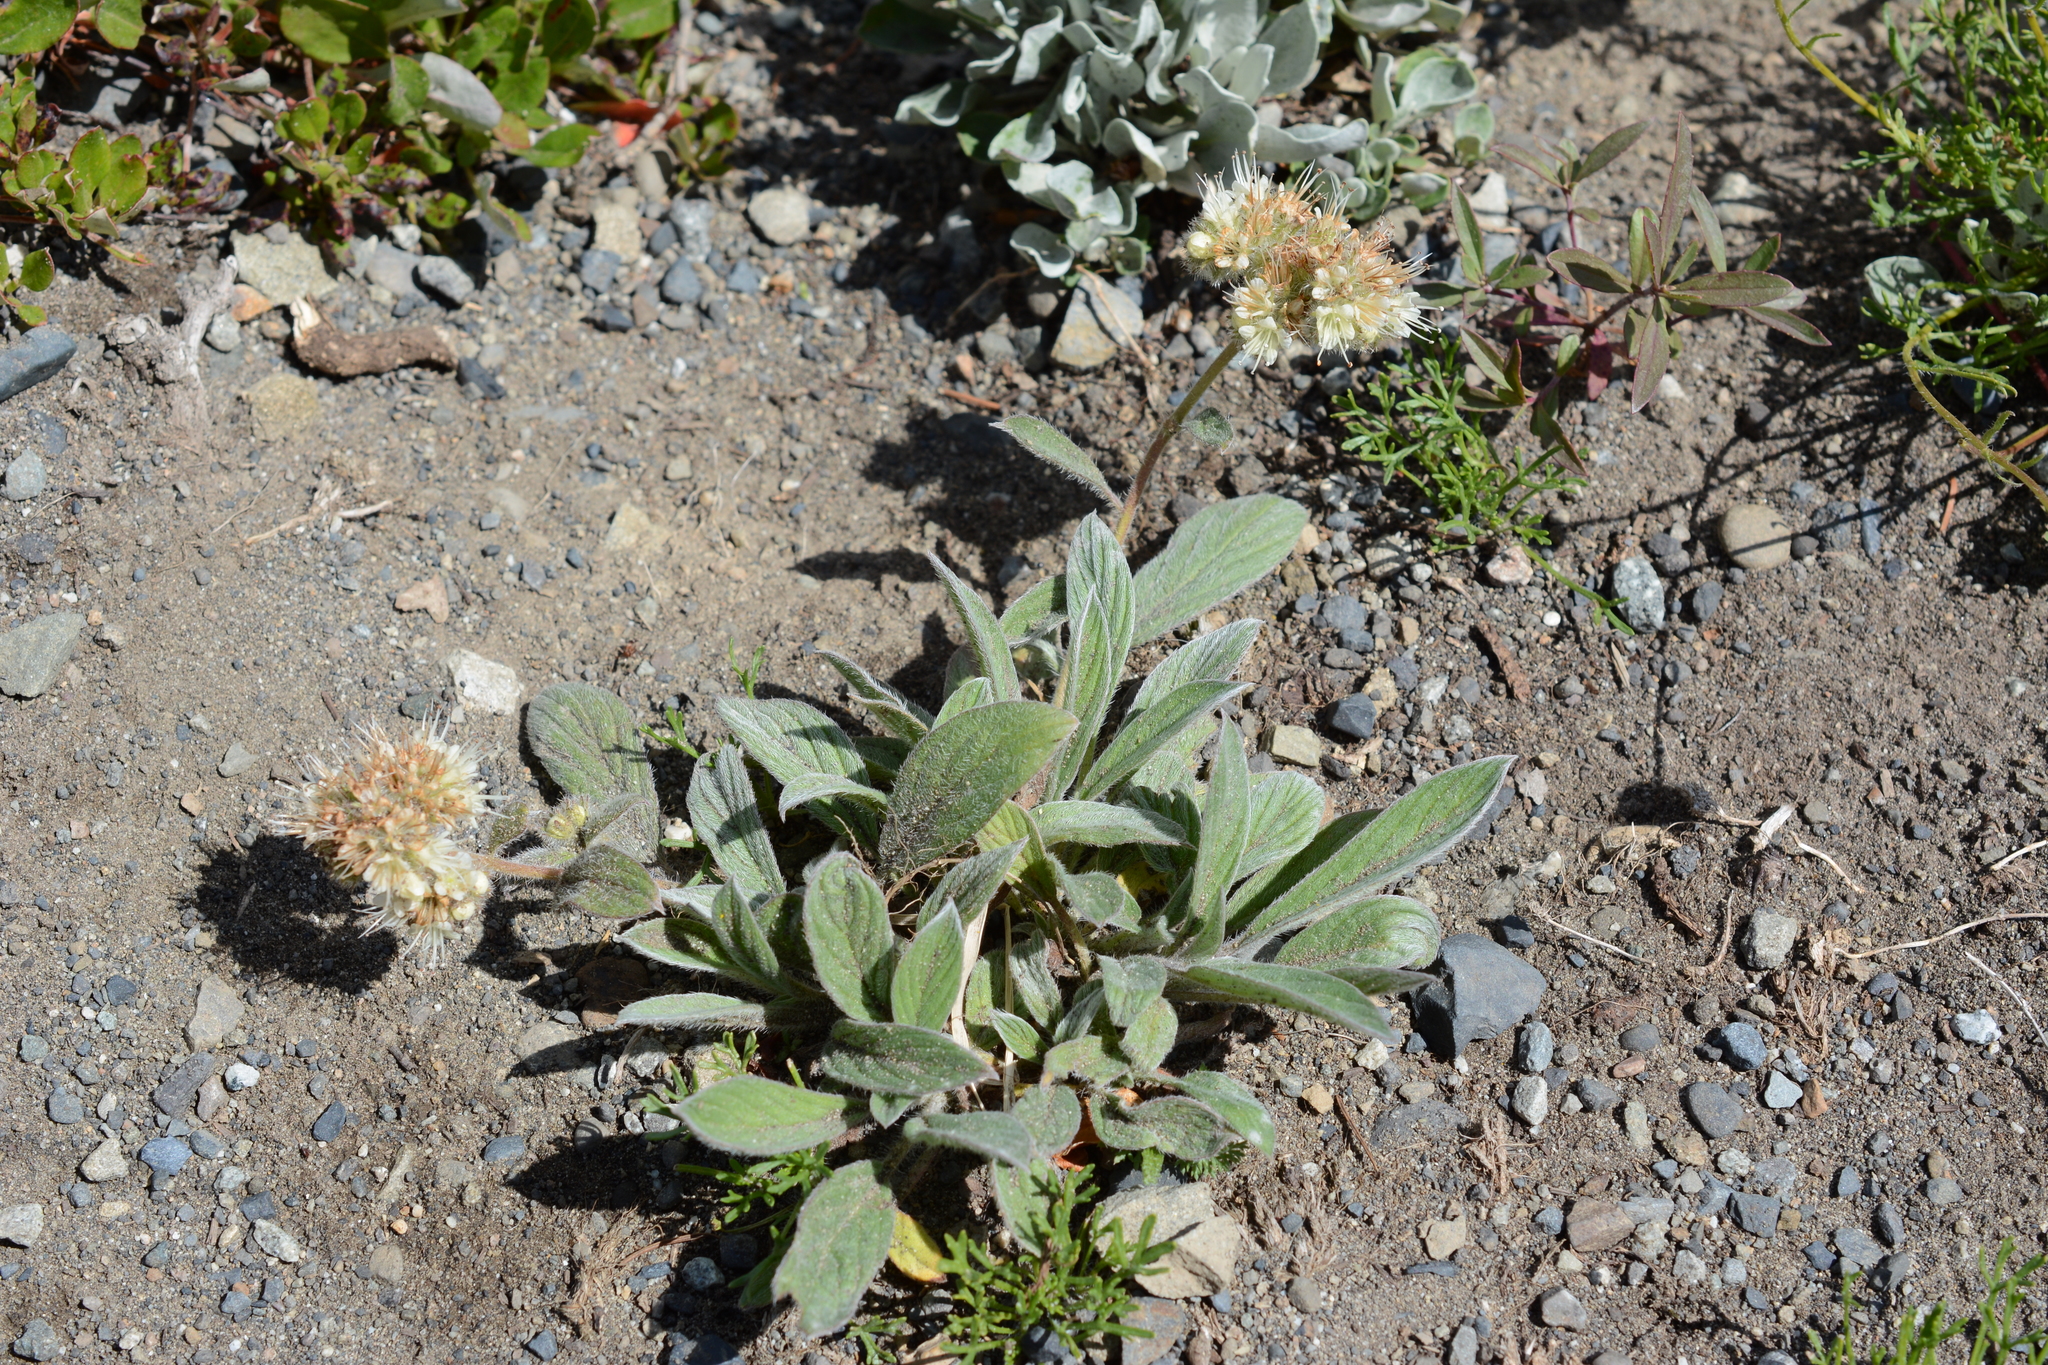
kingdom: Plantae
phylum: Tracheophyta
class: Magnoliopsida
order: Boraginales
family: Hydrophyllaceae
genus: Phacelia
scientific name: Phacelia hastata
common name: Silver-leaved phacelia
